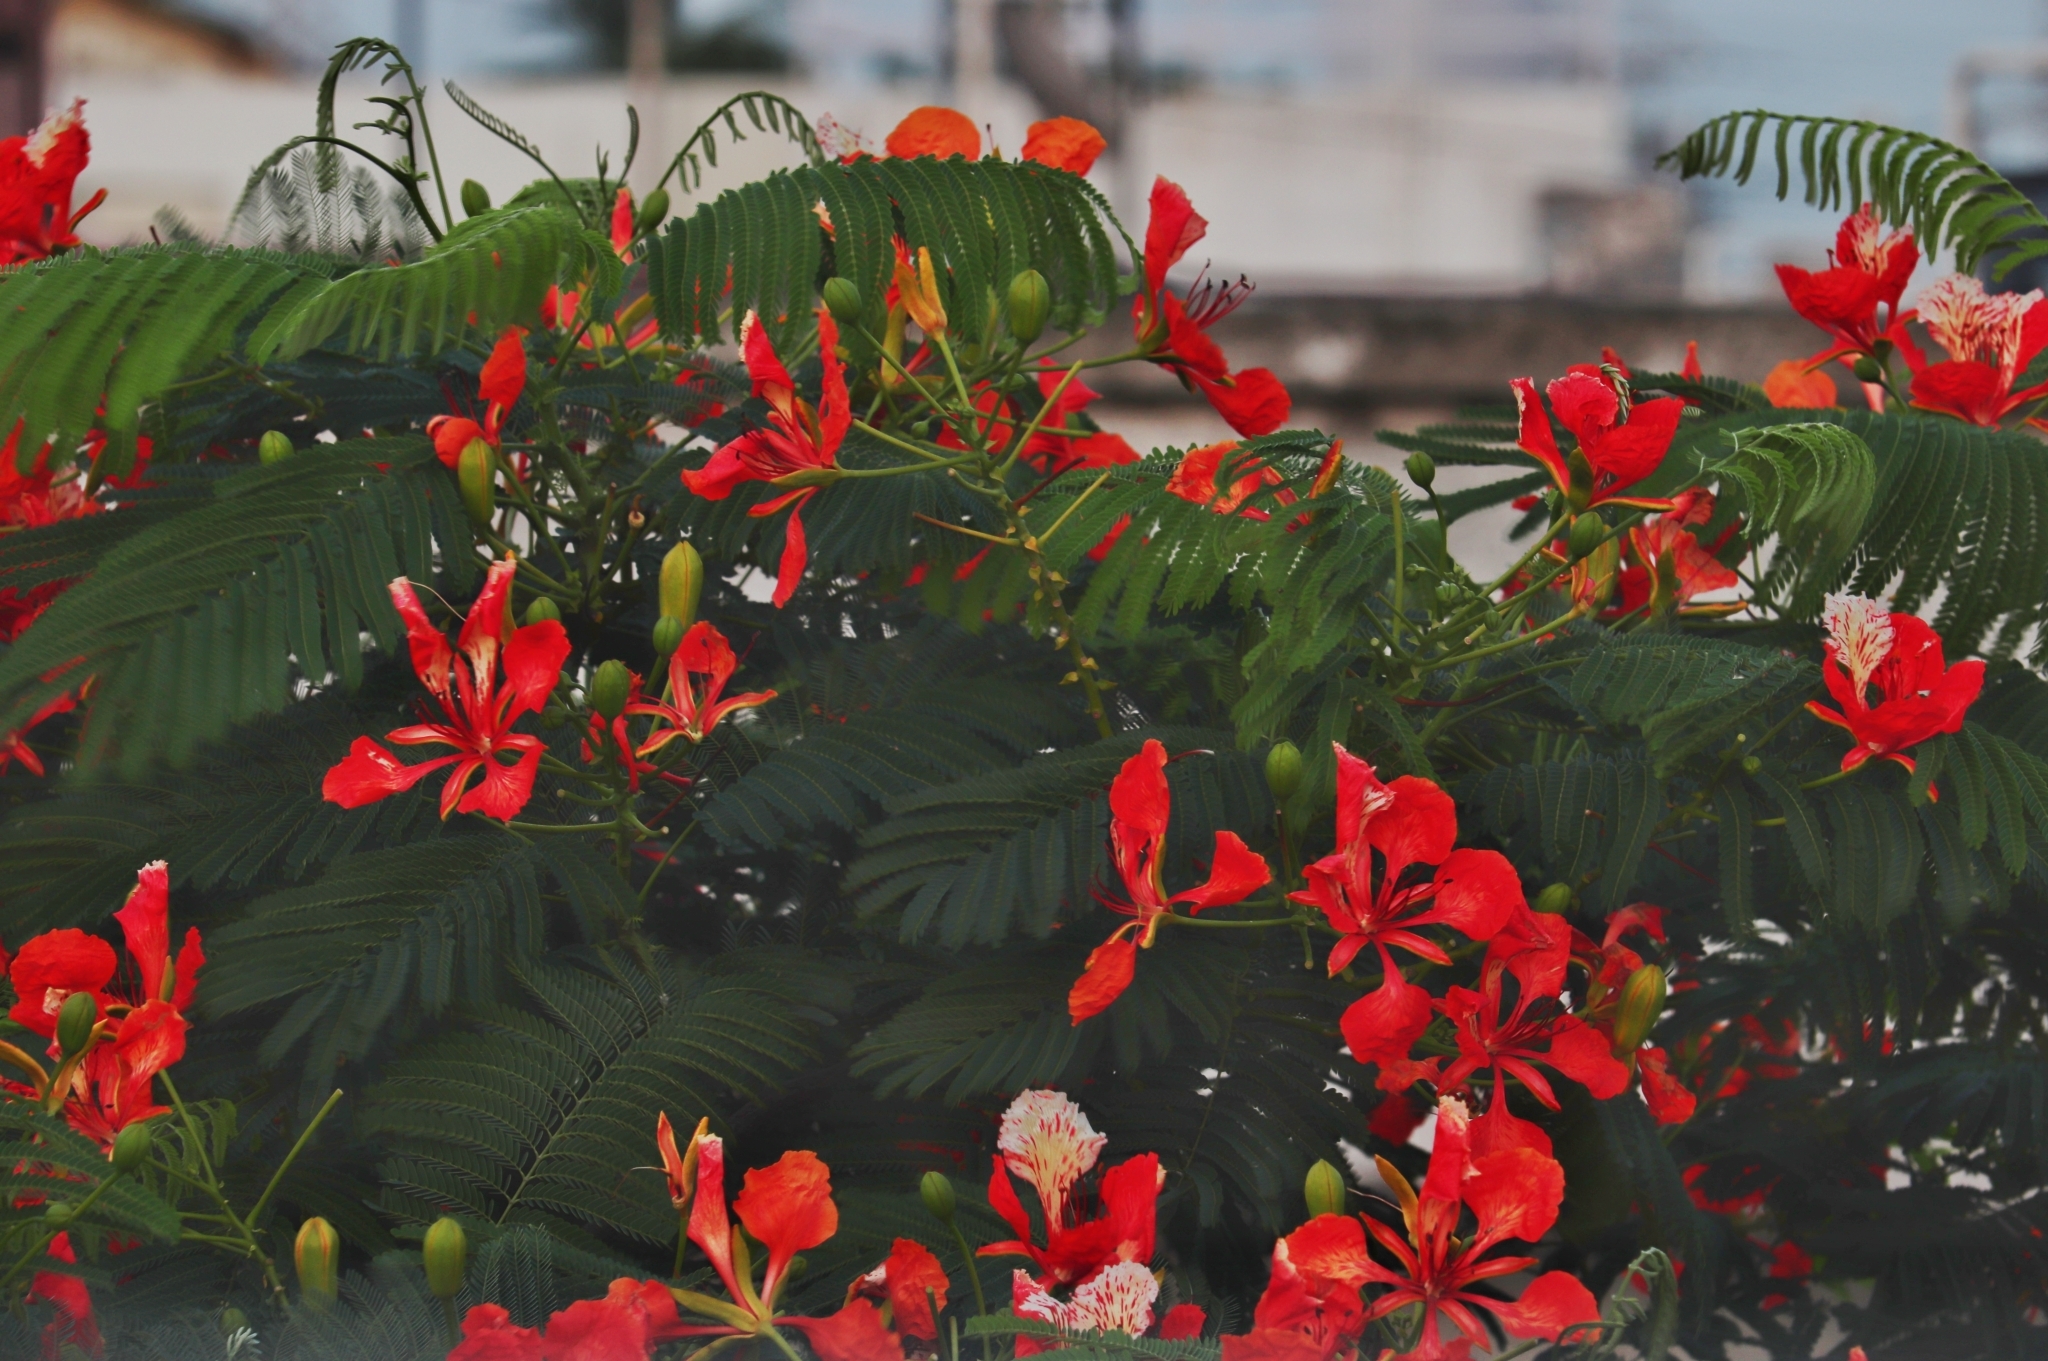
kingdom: Plantae
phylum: Tracheophyta
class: Magnoliopsida
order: Fabales
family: Fabaceae
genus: Delonix
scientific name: Delonix regia
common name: Royal poinciana
